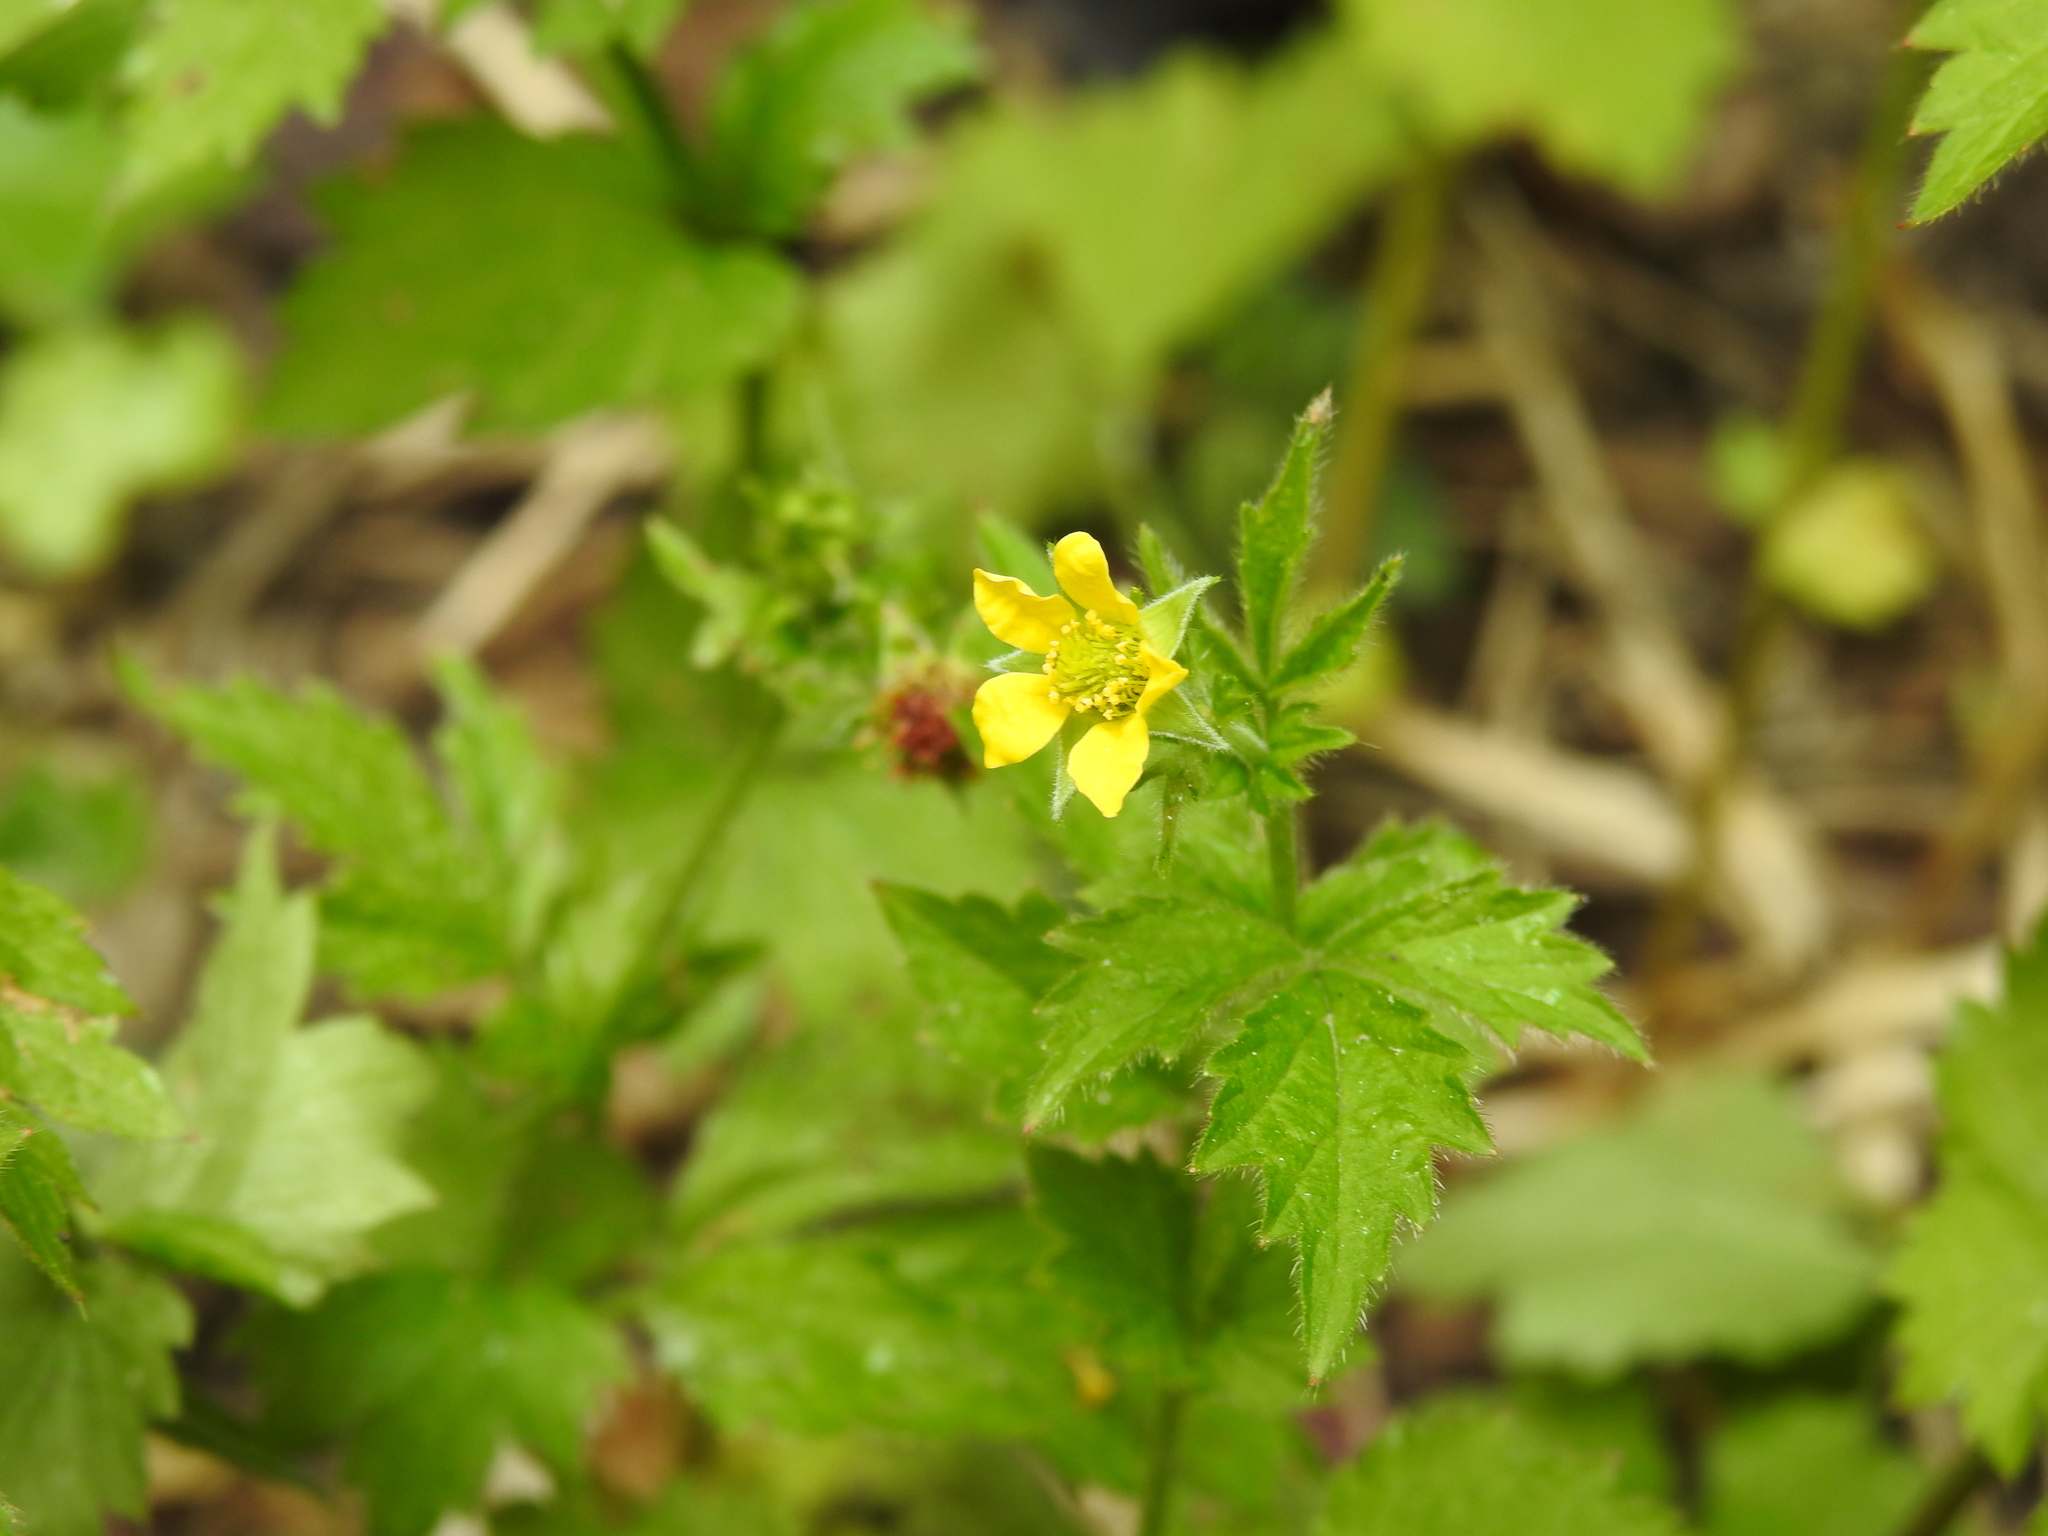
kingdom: Plantae
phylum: Tracheophyta
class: Magnoliopsida
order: Rosales
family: Rosaceae
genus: Geum
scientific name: Geum urbanum
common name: Wood avens
